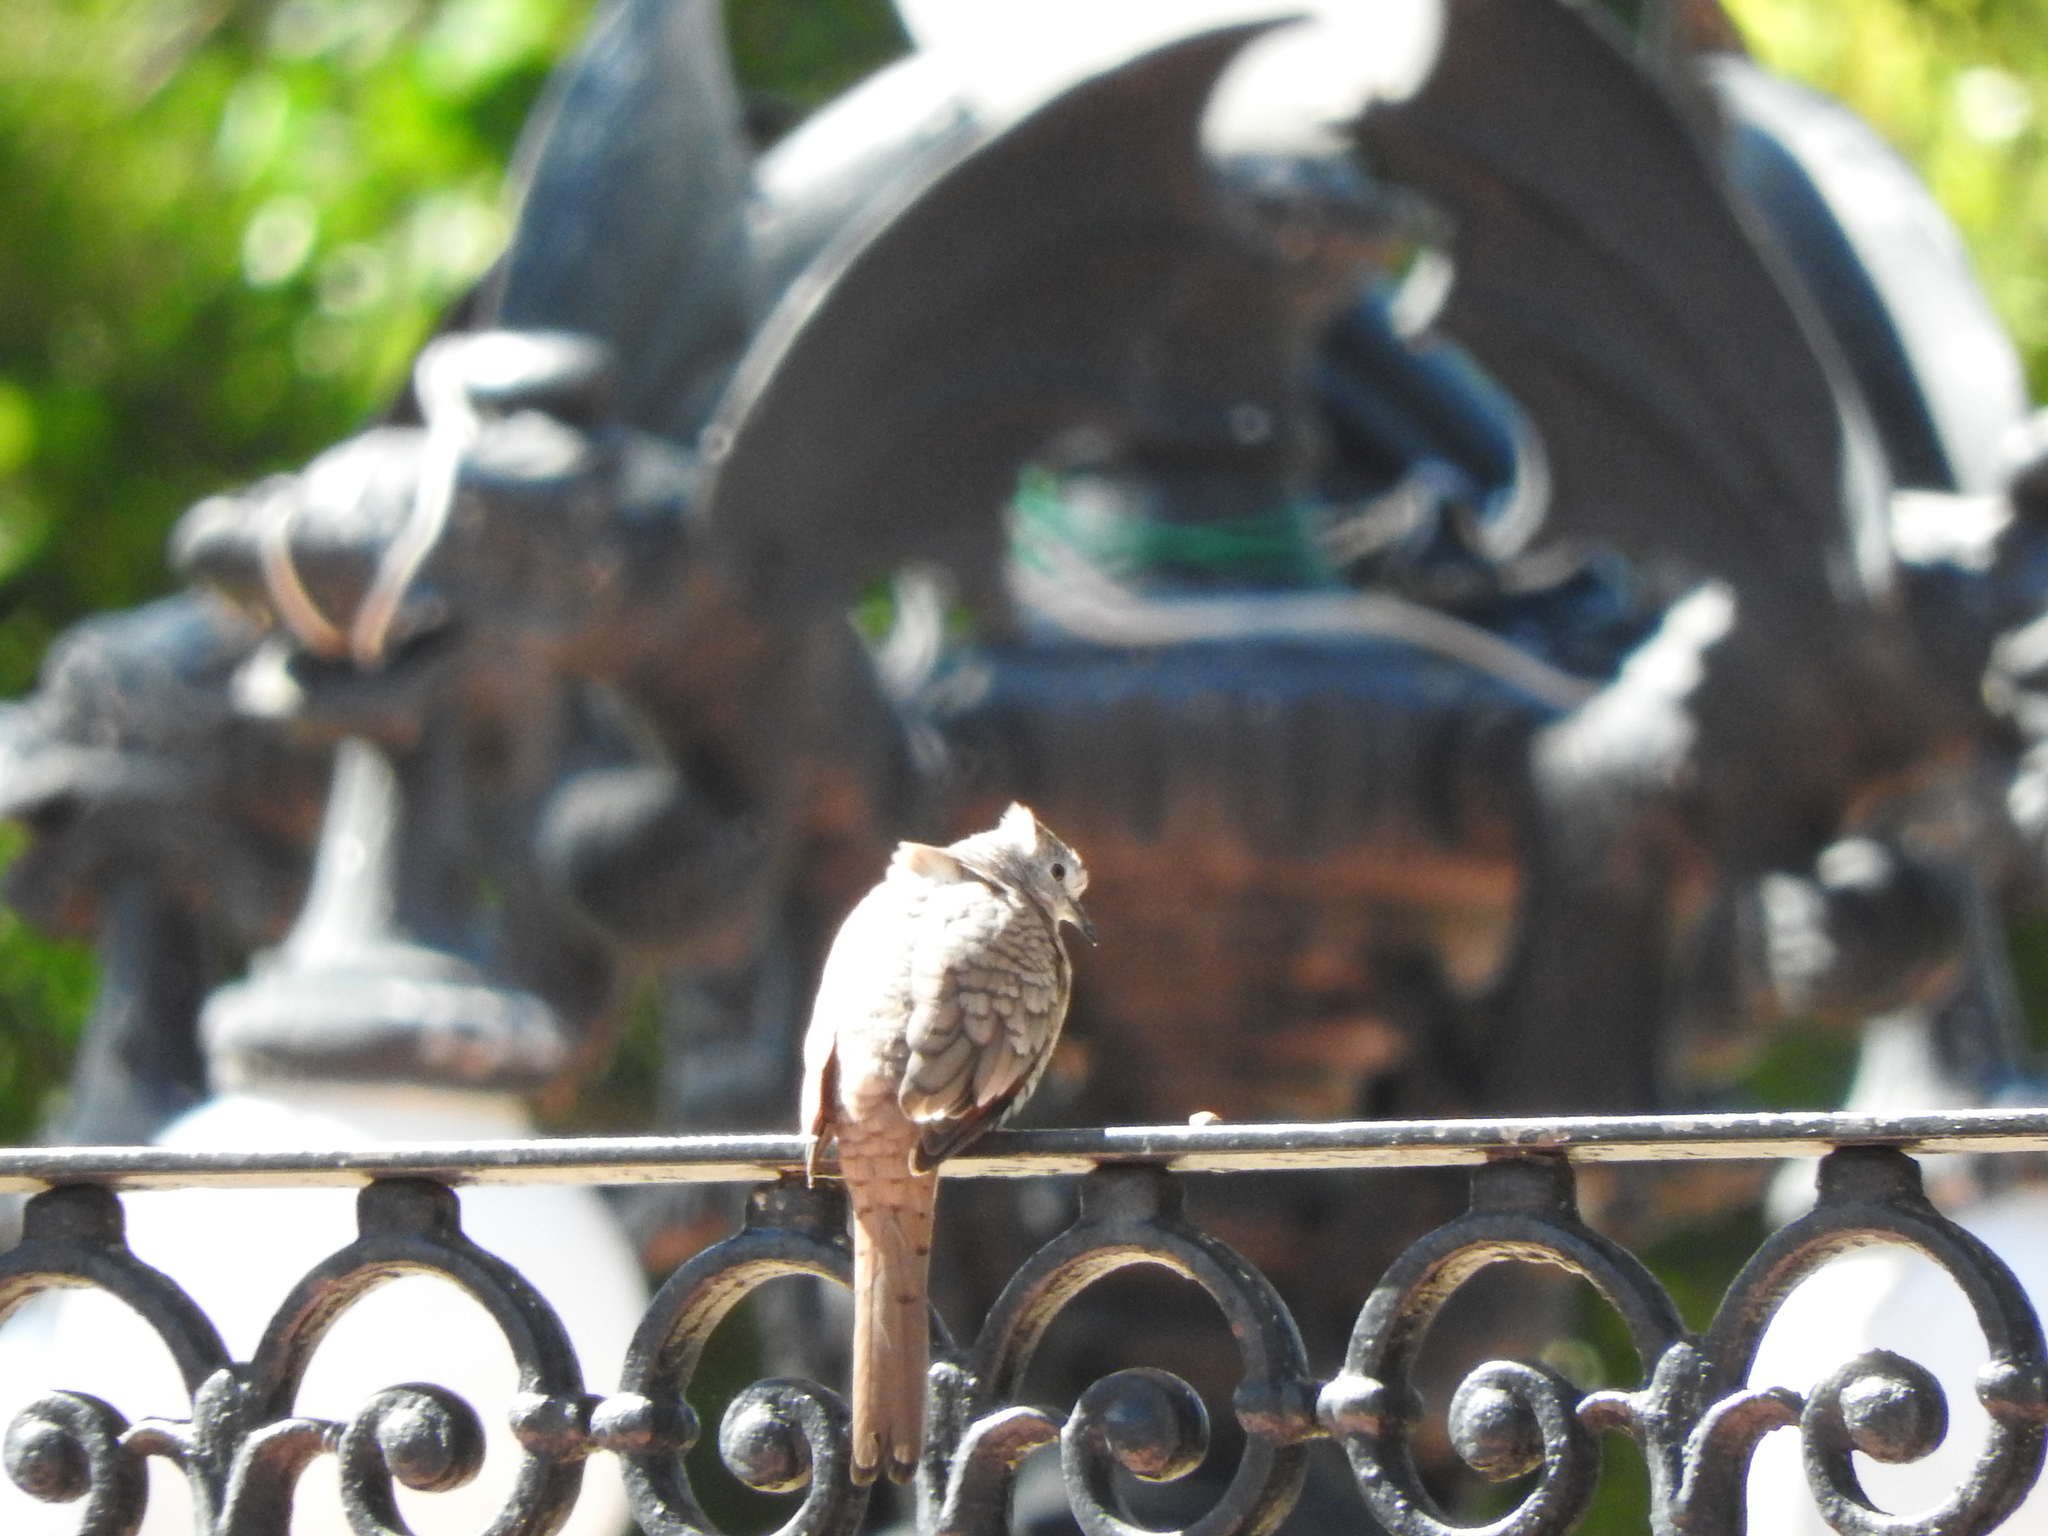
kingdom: Animalia
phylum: Chordata
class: Aves
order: Columbiformes
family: Columbidae
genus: Columbina
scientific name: Columbina inca
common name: Inca dove
